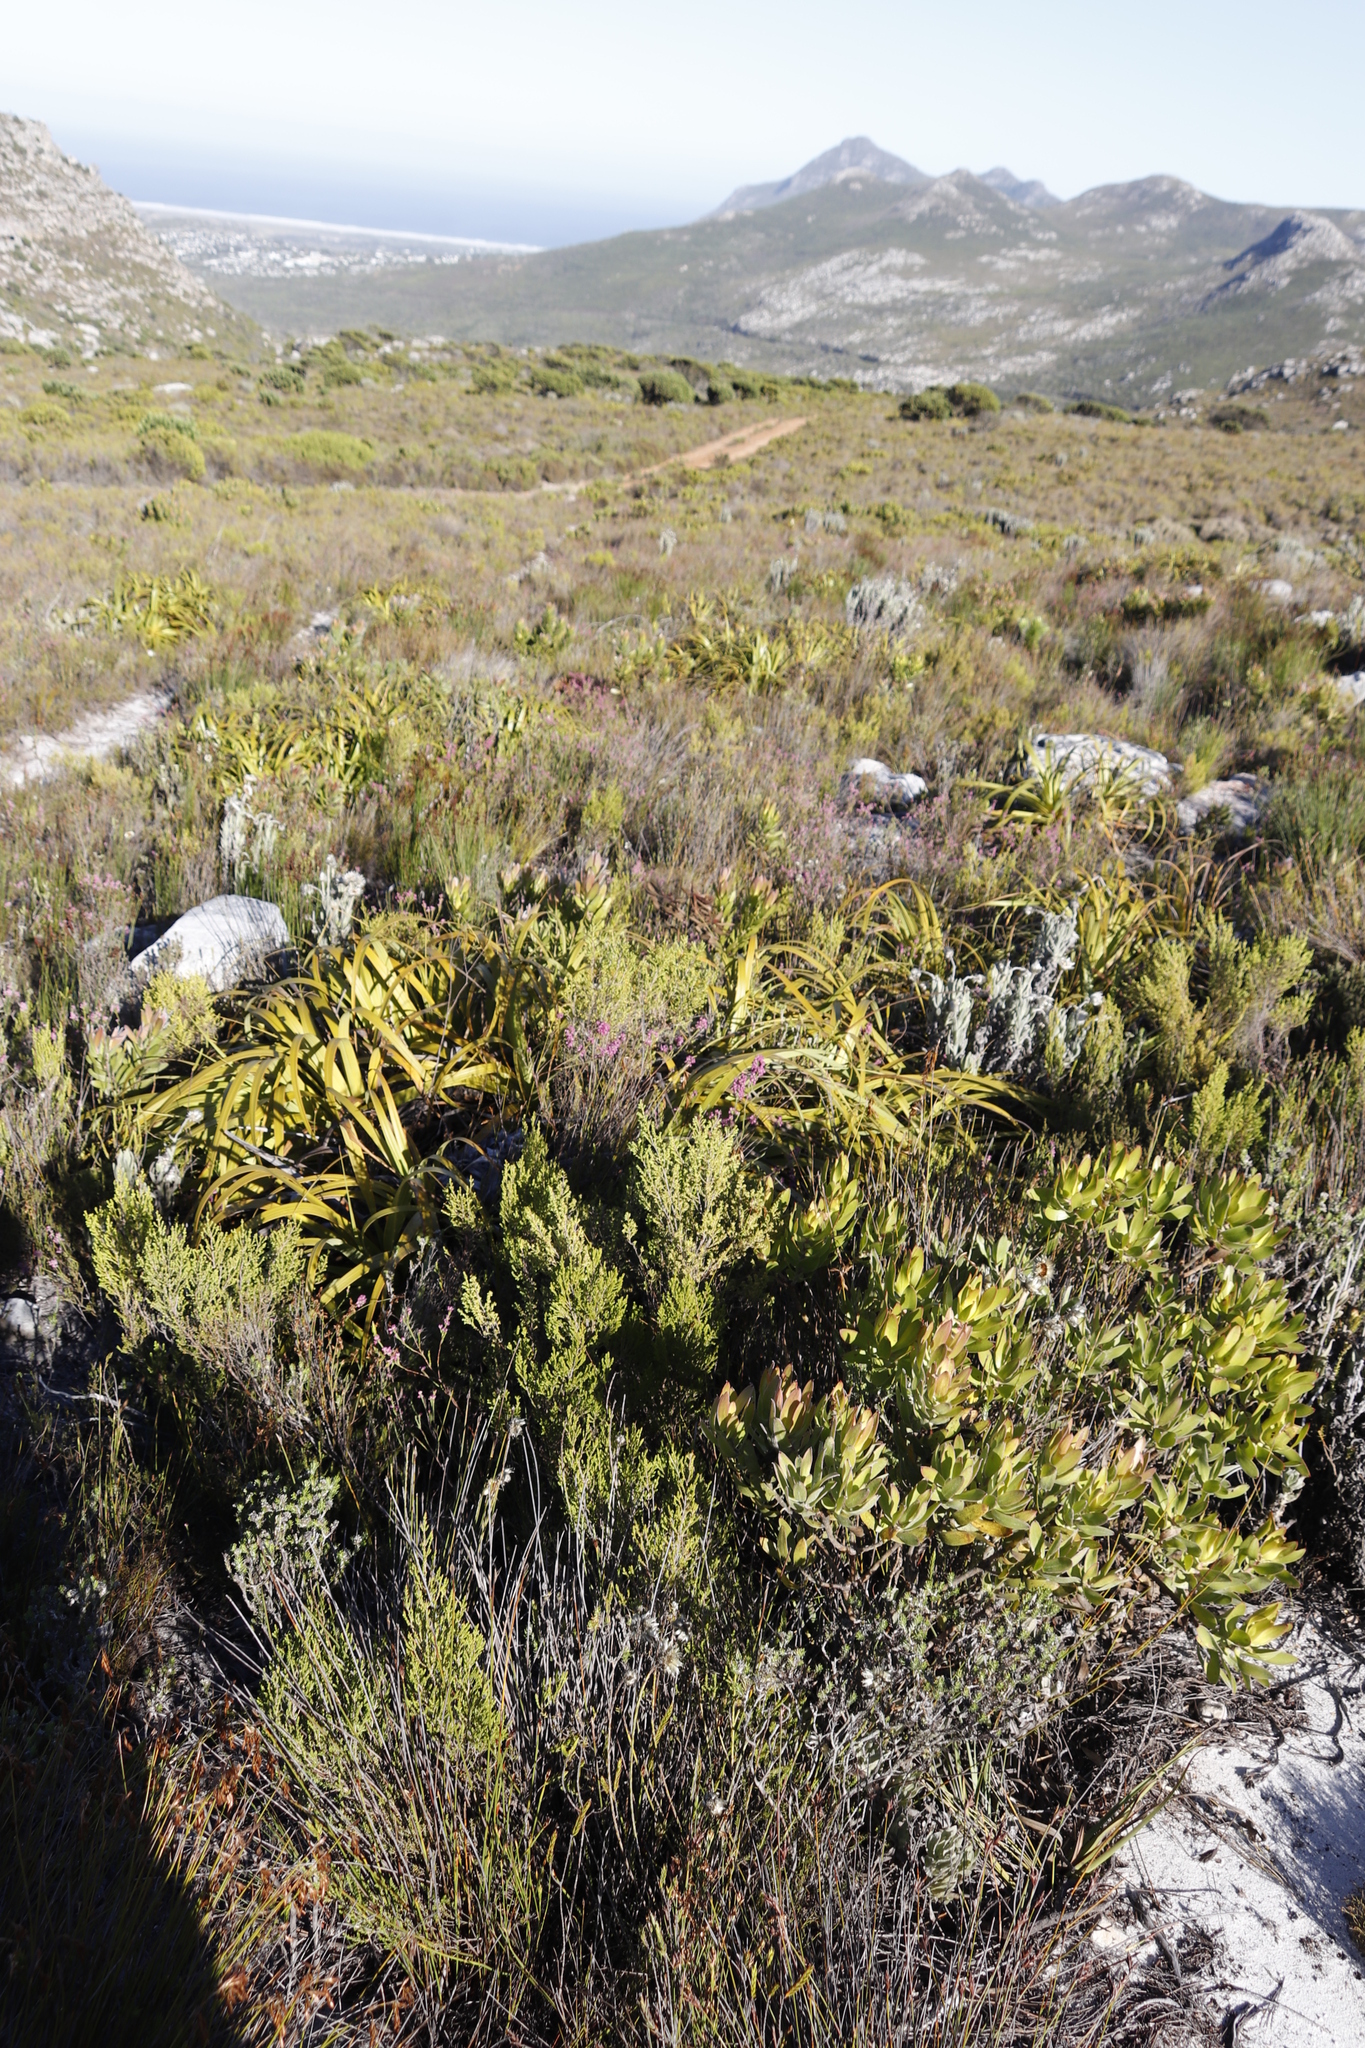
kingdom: Plantae
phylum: Tracheophyta
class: Liliopsida
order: Poales
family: Cyperaceae
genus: Tetraria
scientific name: Tetraria thermalis
